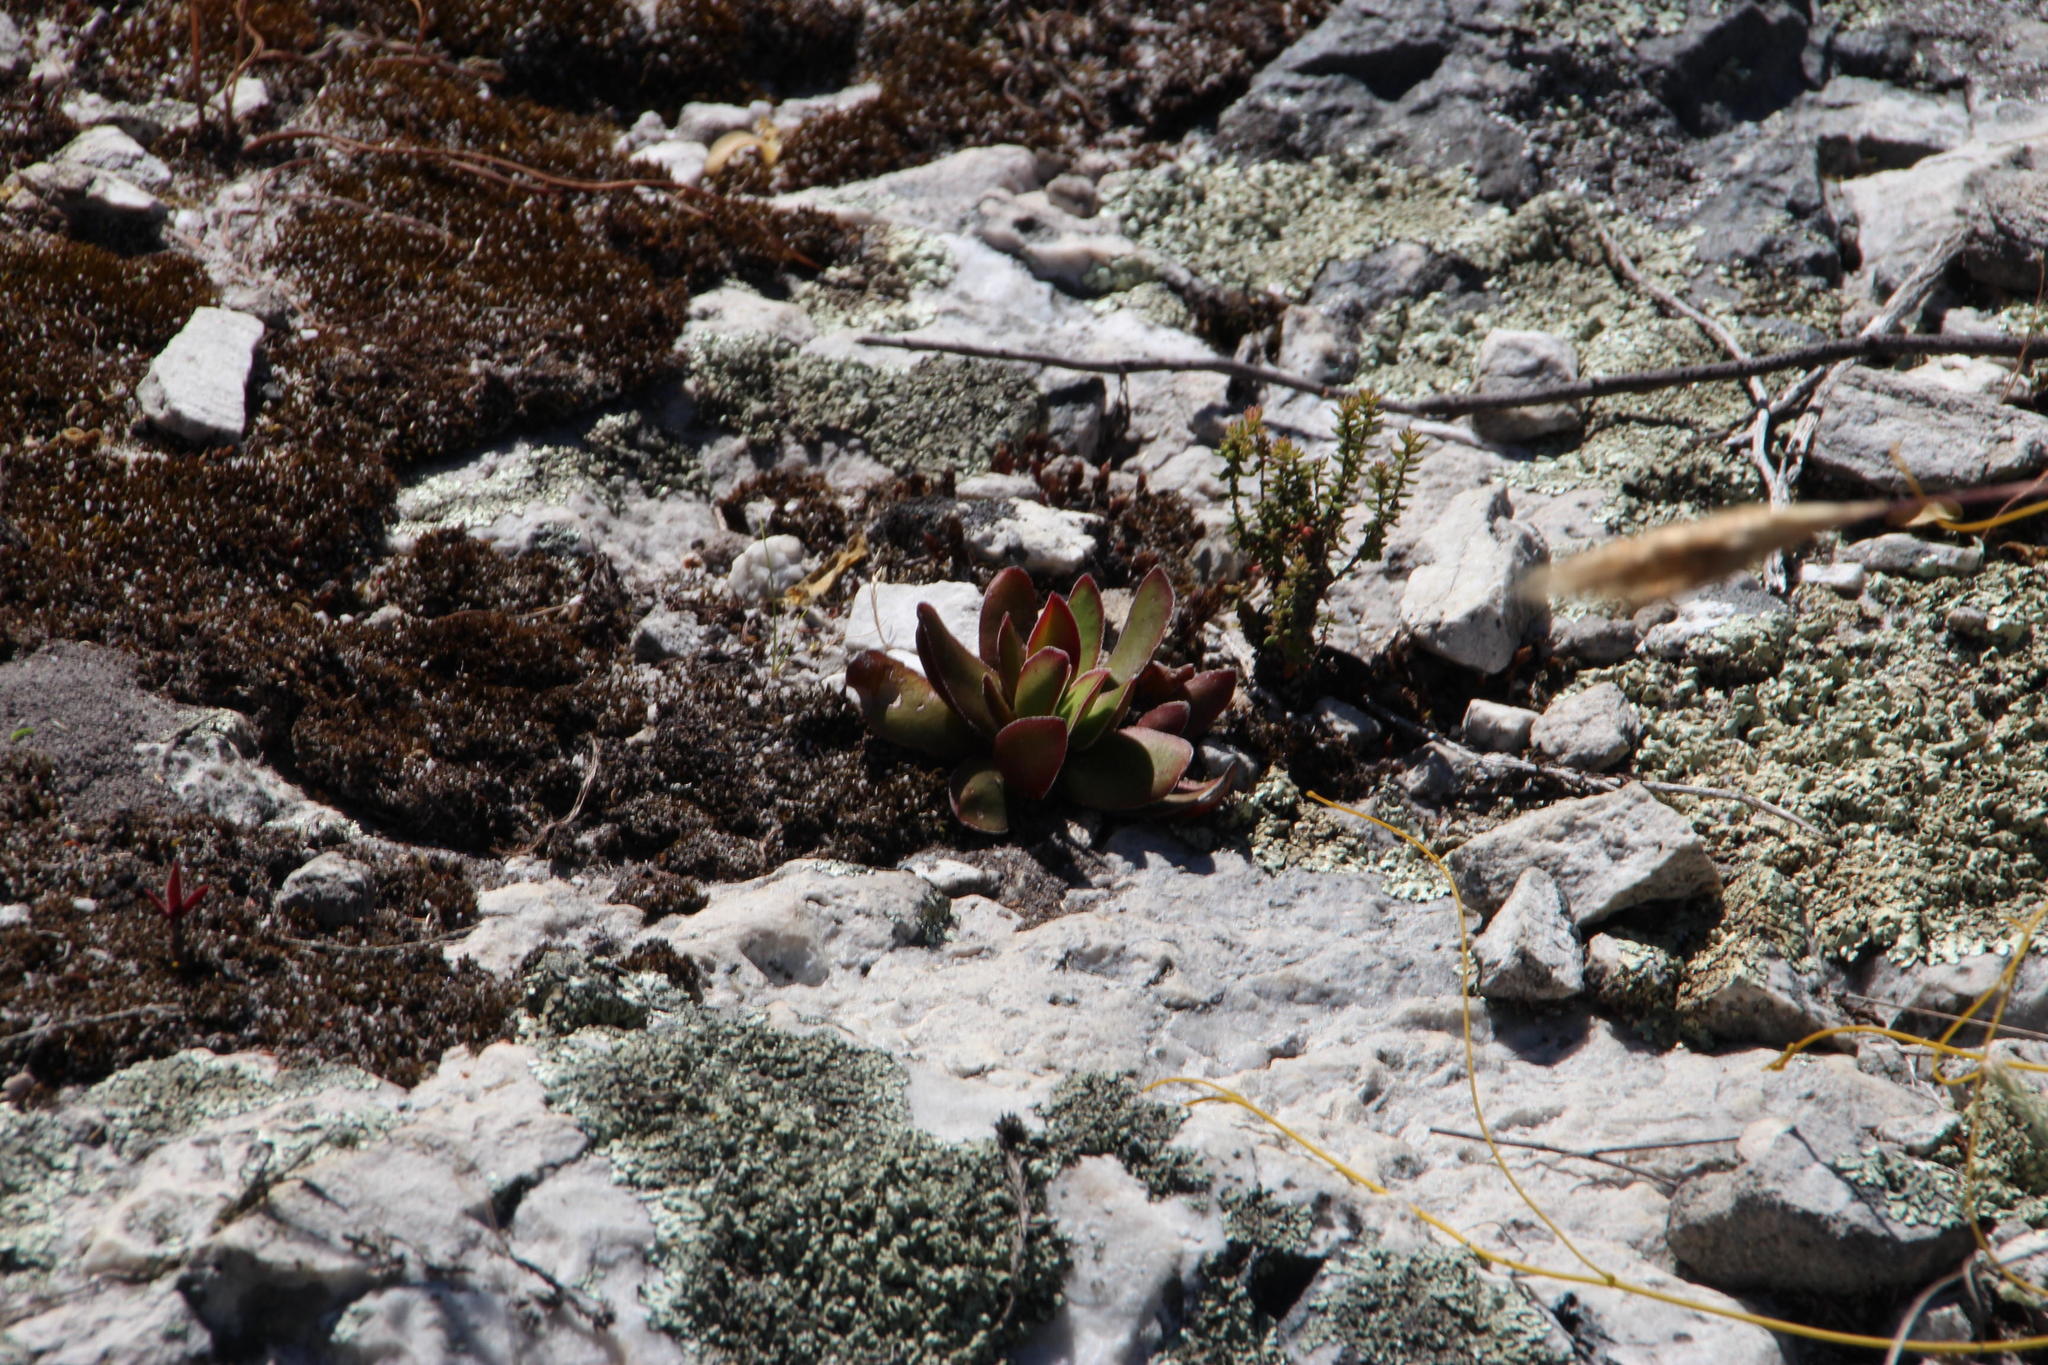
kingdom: Plantae
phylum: Tracheophyta
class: Magnoliopsida
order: Saxifragales
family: Crassulaceae
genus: Crassula
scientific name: Crassula nudicaulis
